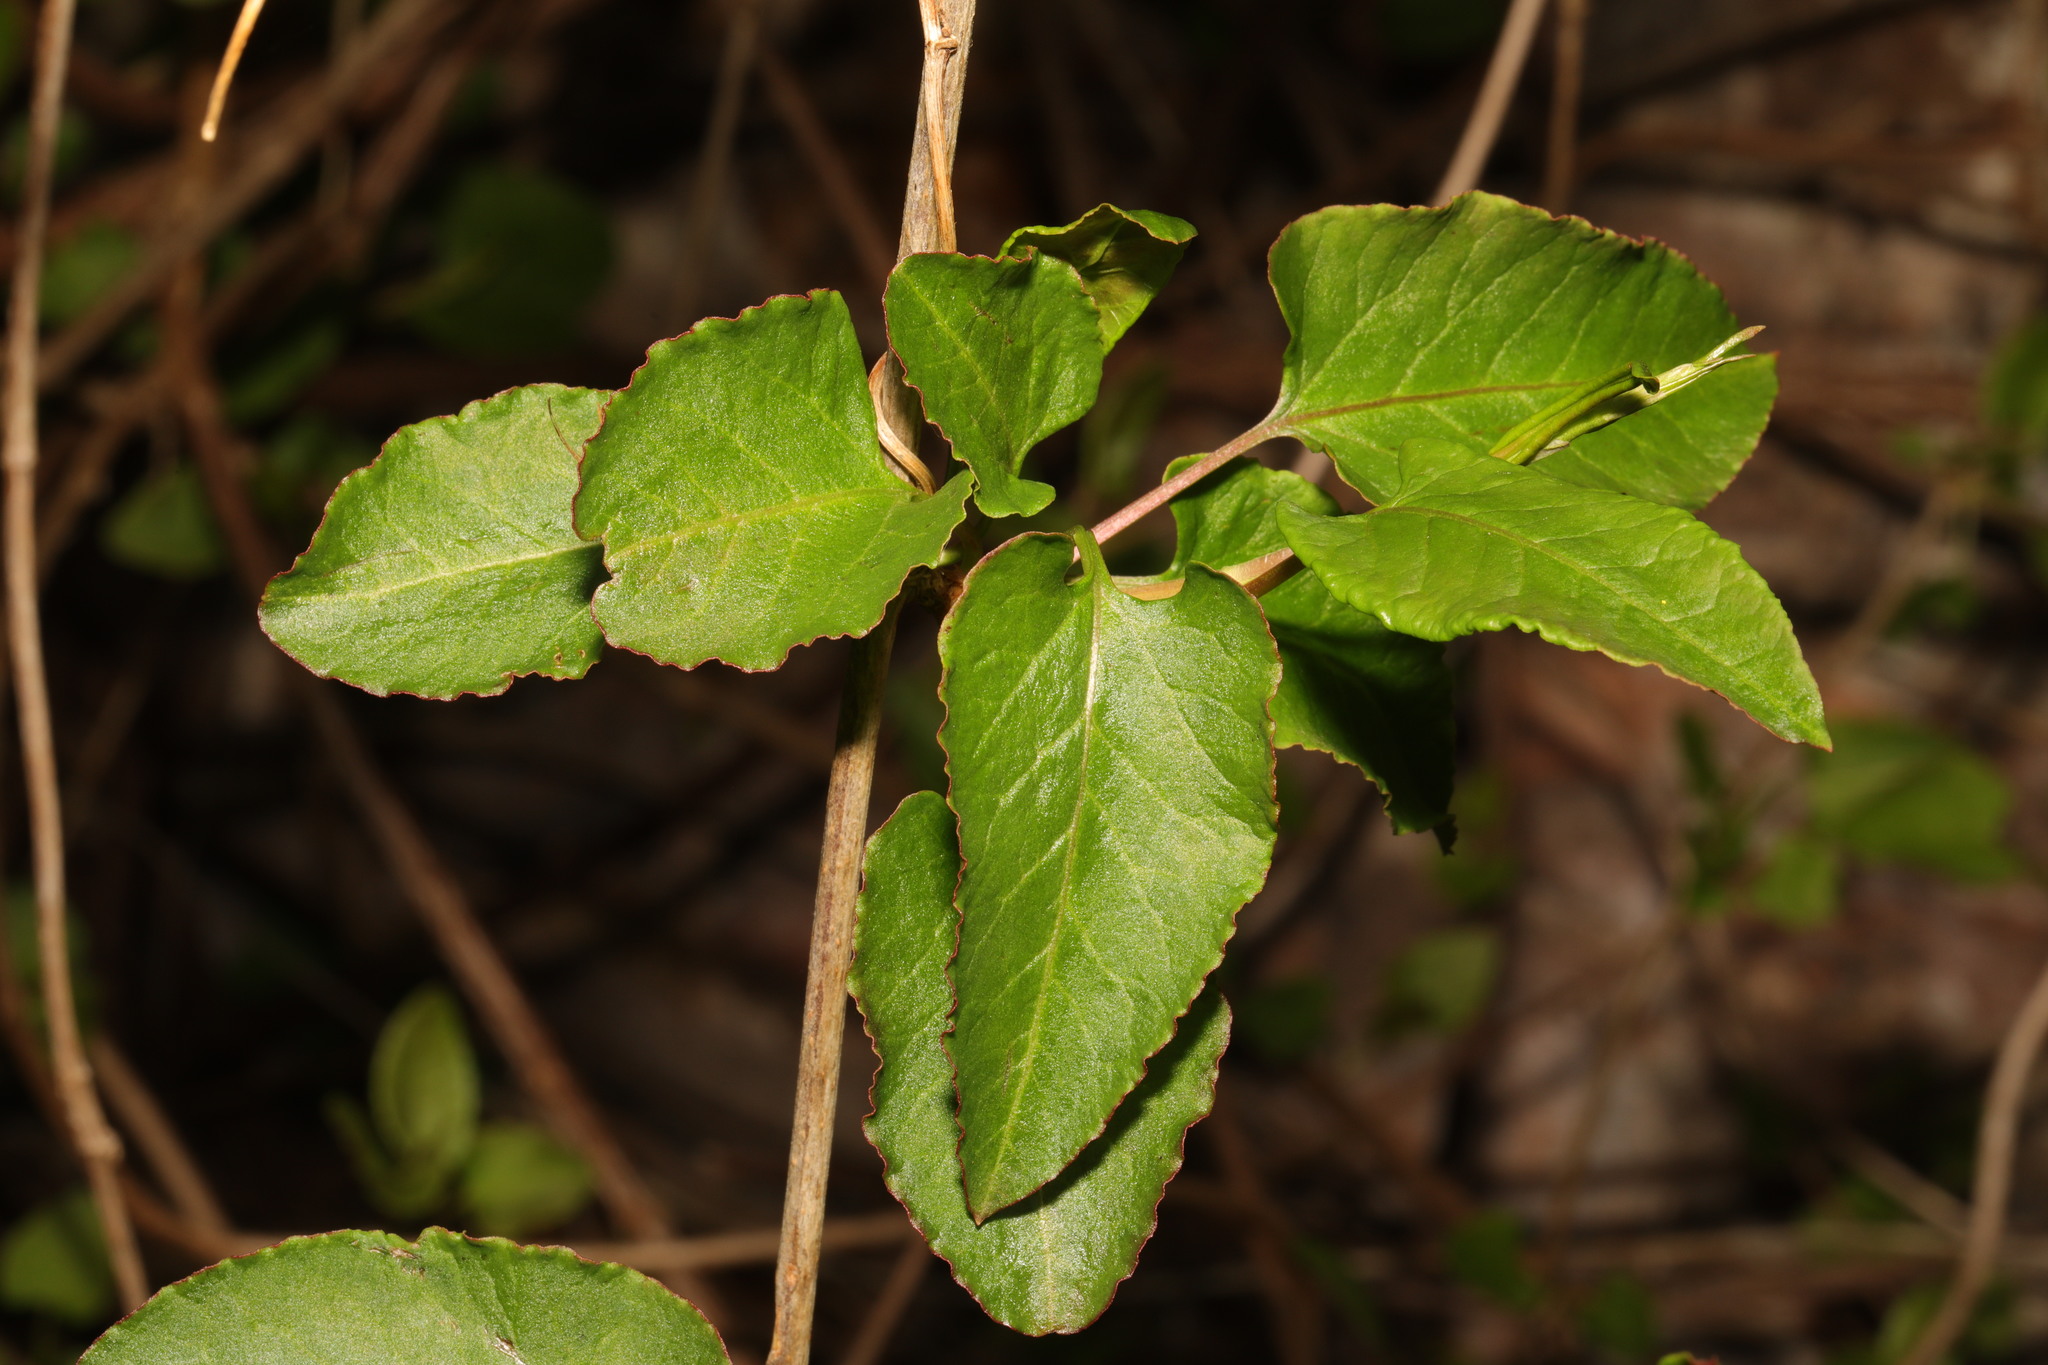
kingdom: Plantae
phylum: Tracheophyta
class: Magnoliopsida
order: Caryophyllales
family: Polygonaceae
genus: Fallopia
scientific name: Fallopia baldschuanica
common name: Russian-vine
